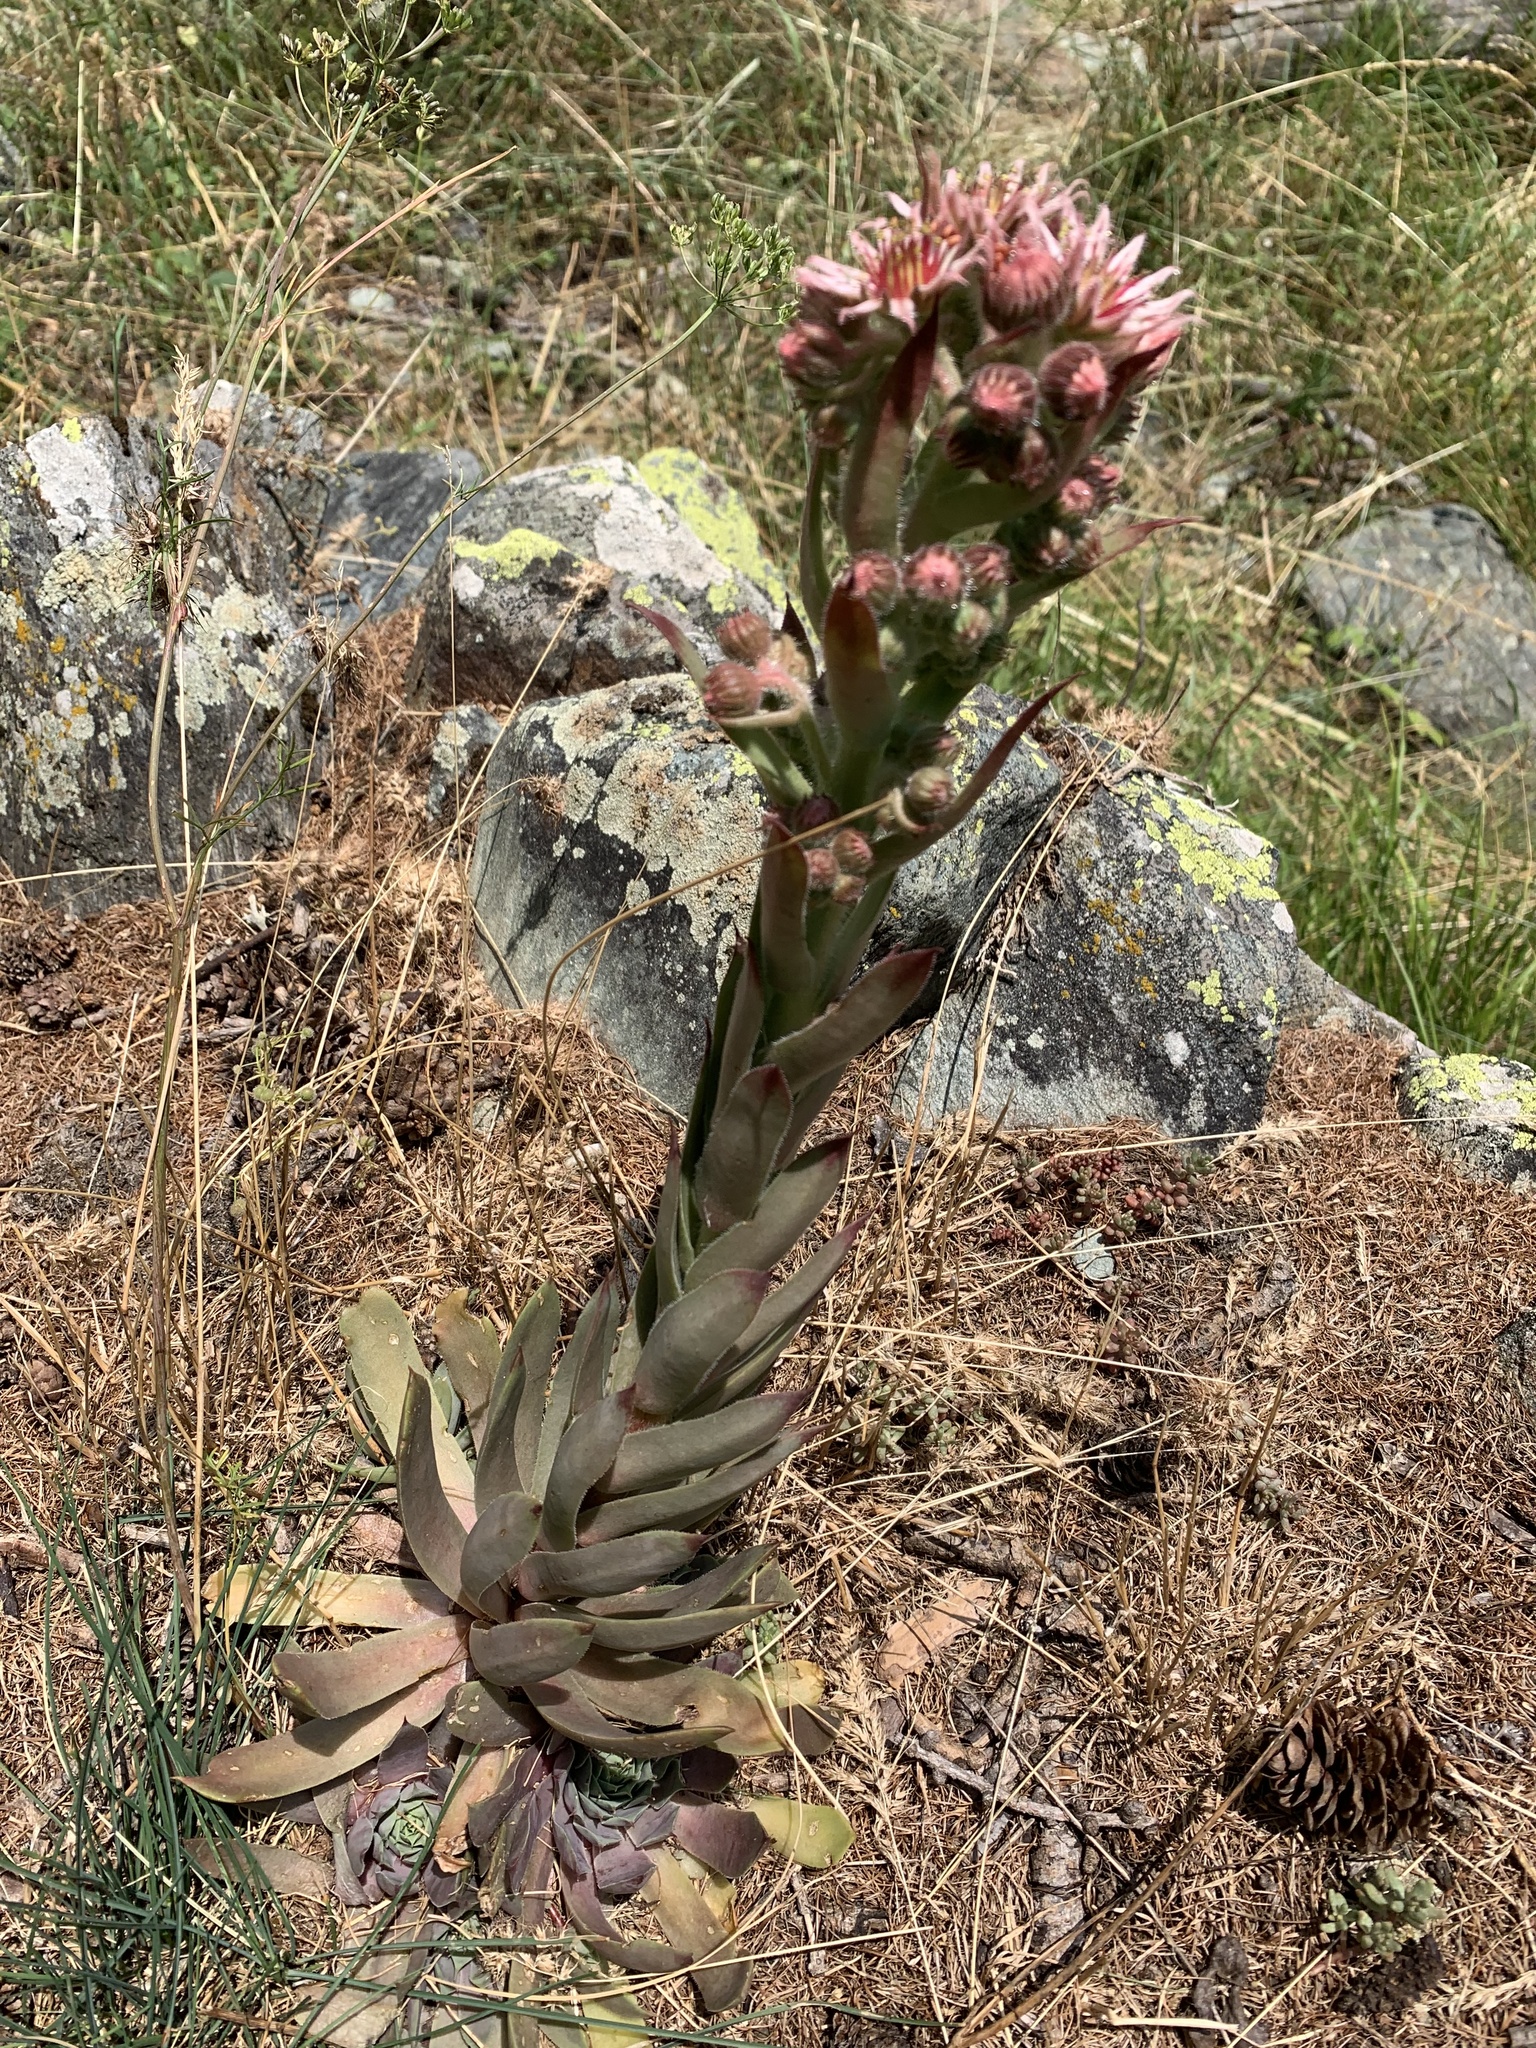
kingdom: Plantae
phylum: Tracheophyta
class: Magnoliopsida
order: Saxifragales
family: Crassulaceae
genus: Sempervivum
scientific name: Sempervivum tectorum
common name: House-leek
